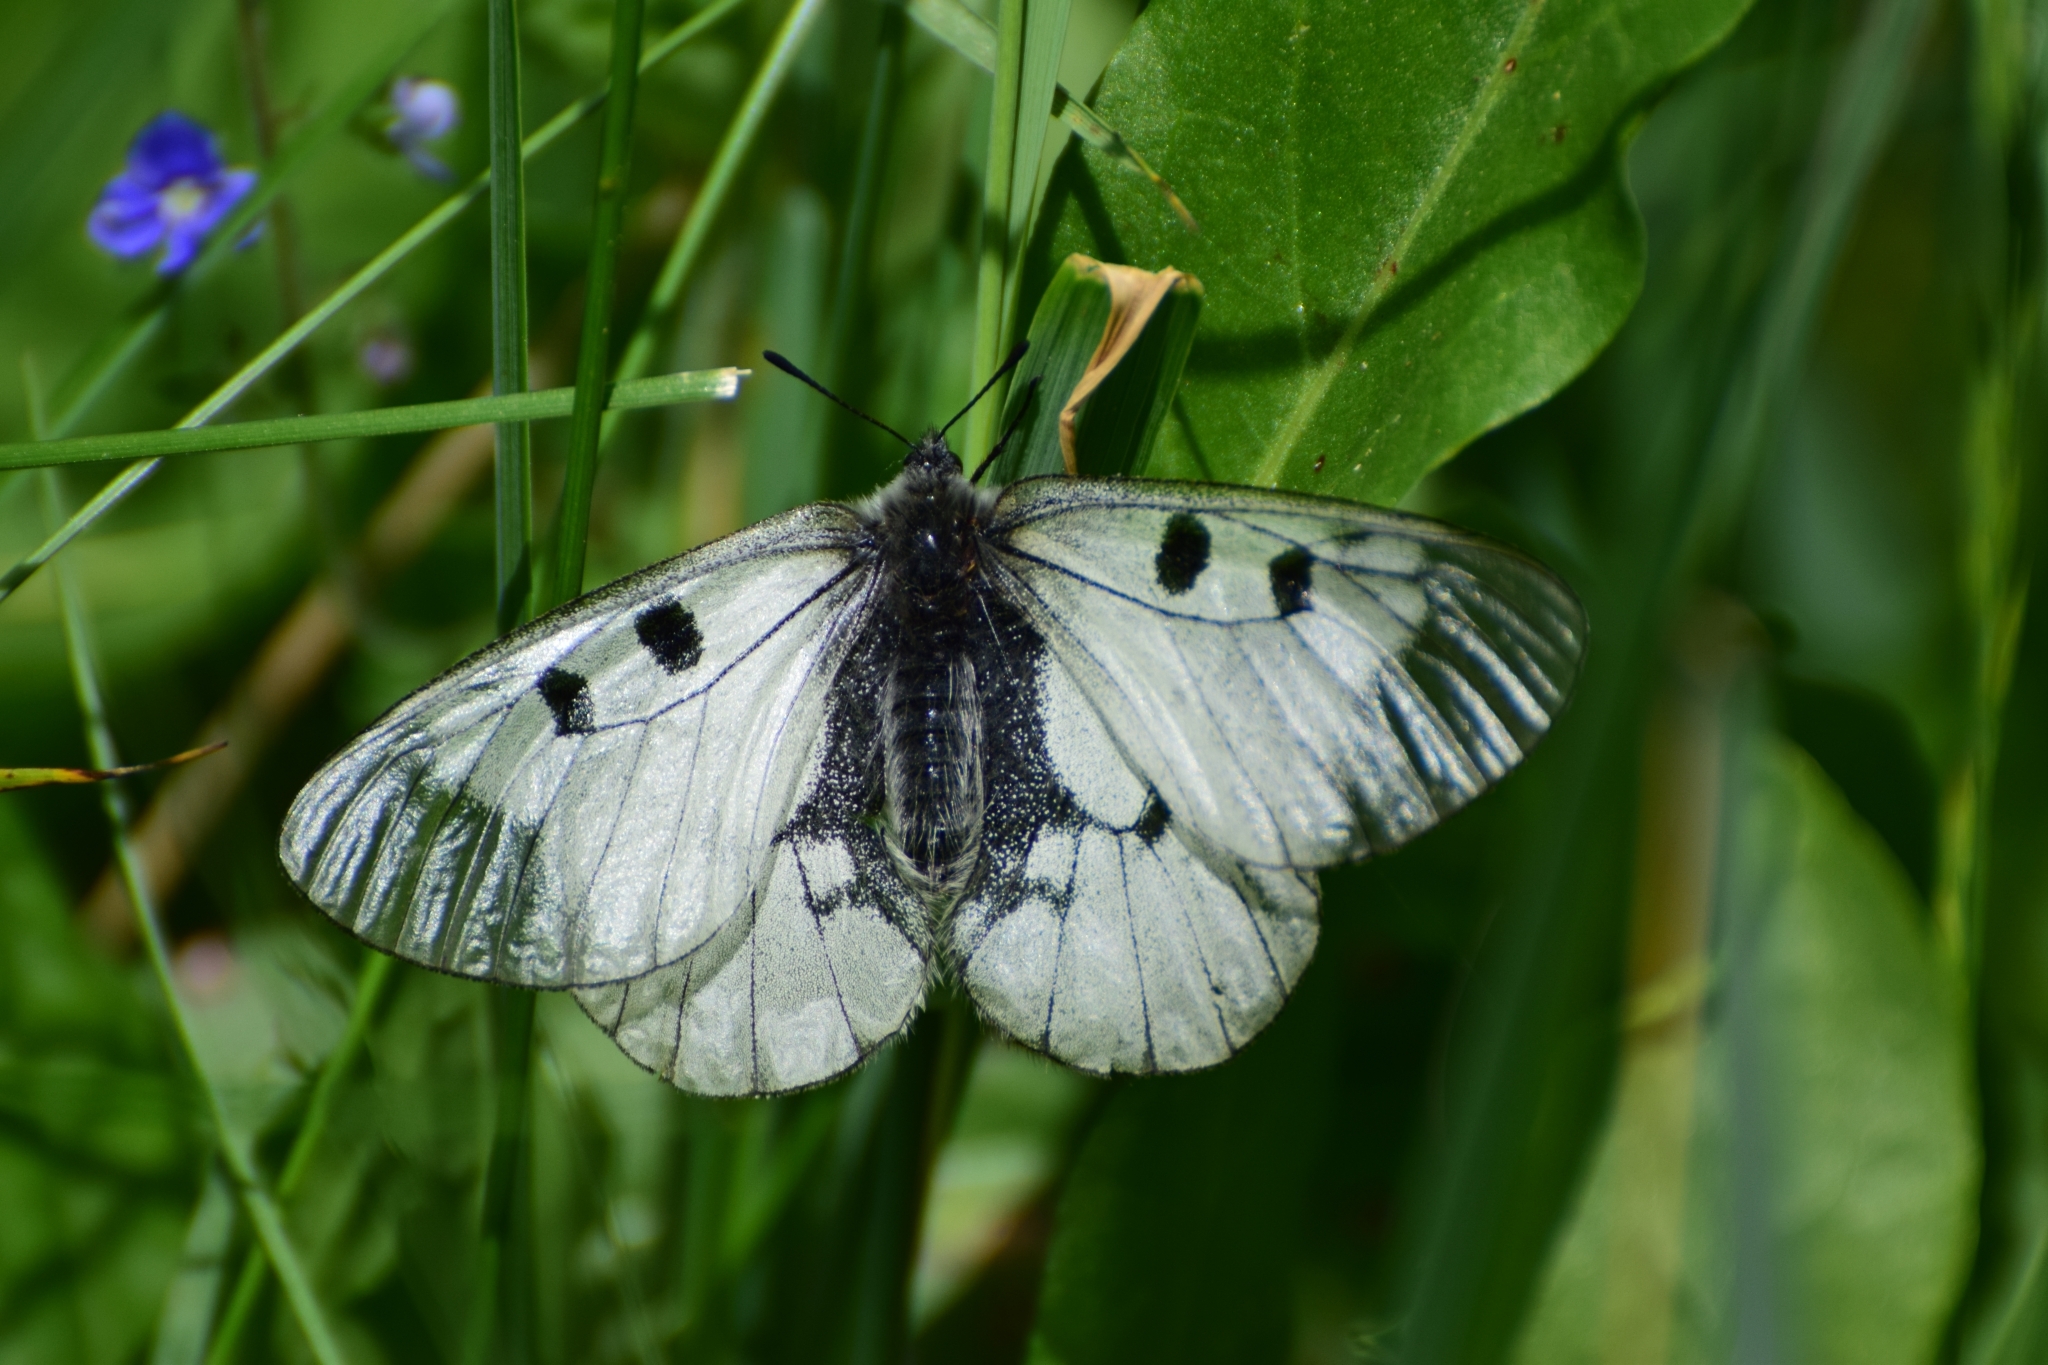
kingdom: Animalia
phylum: Arthropoda
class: Insecta
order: Lepidoptera
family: Papilionidae
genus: Parnassius
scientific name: Parnassius mnemosyne
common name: Clouded apollo
